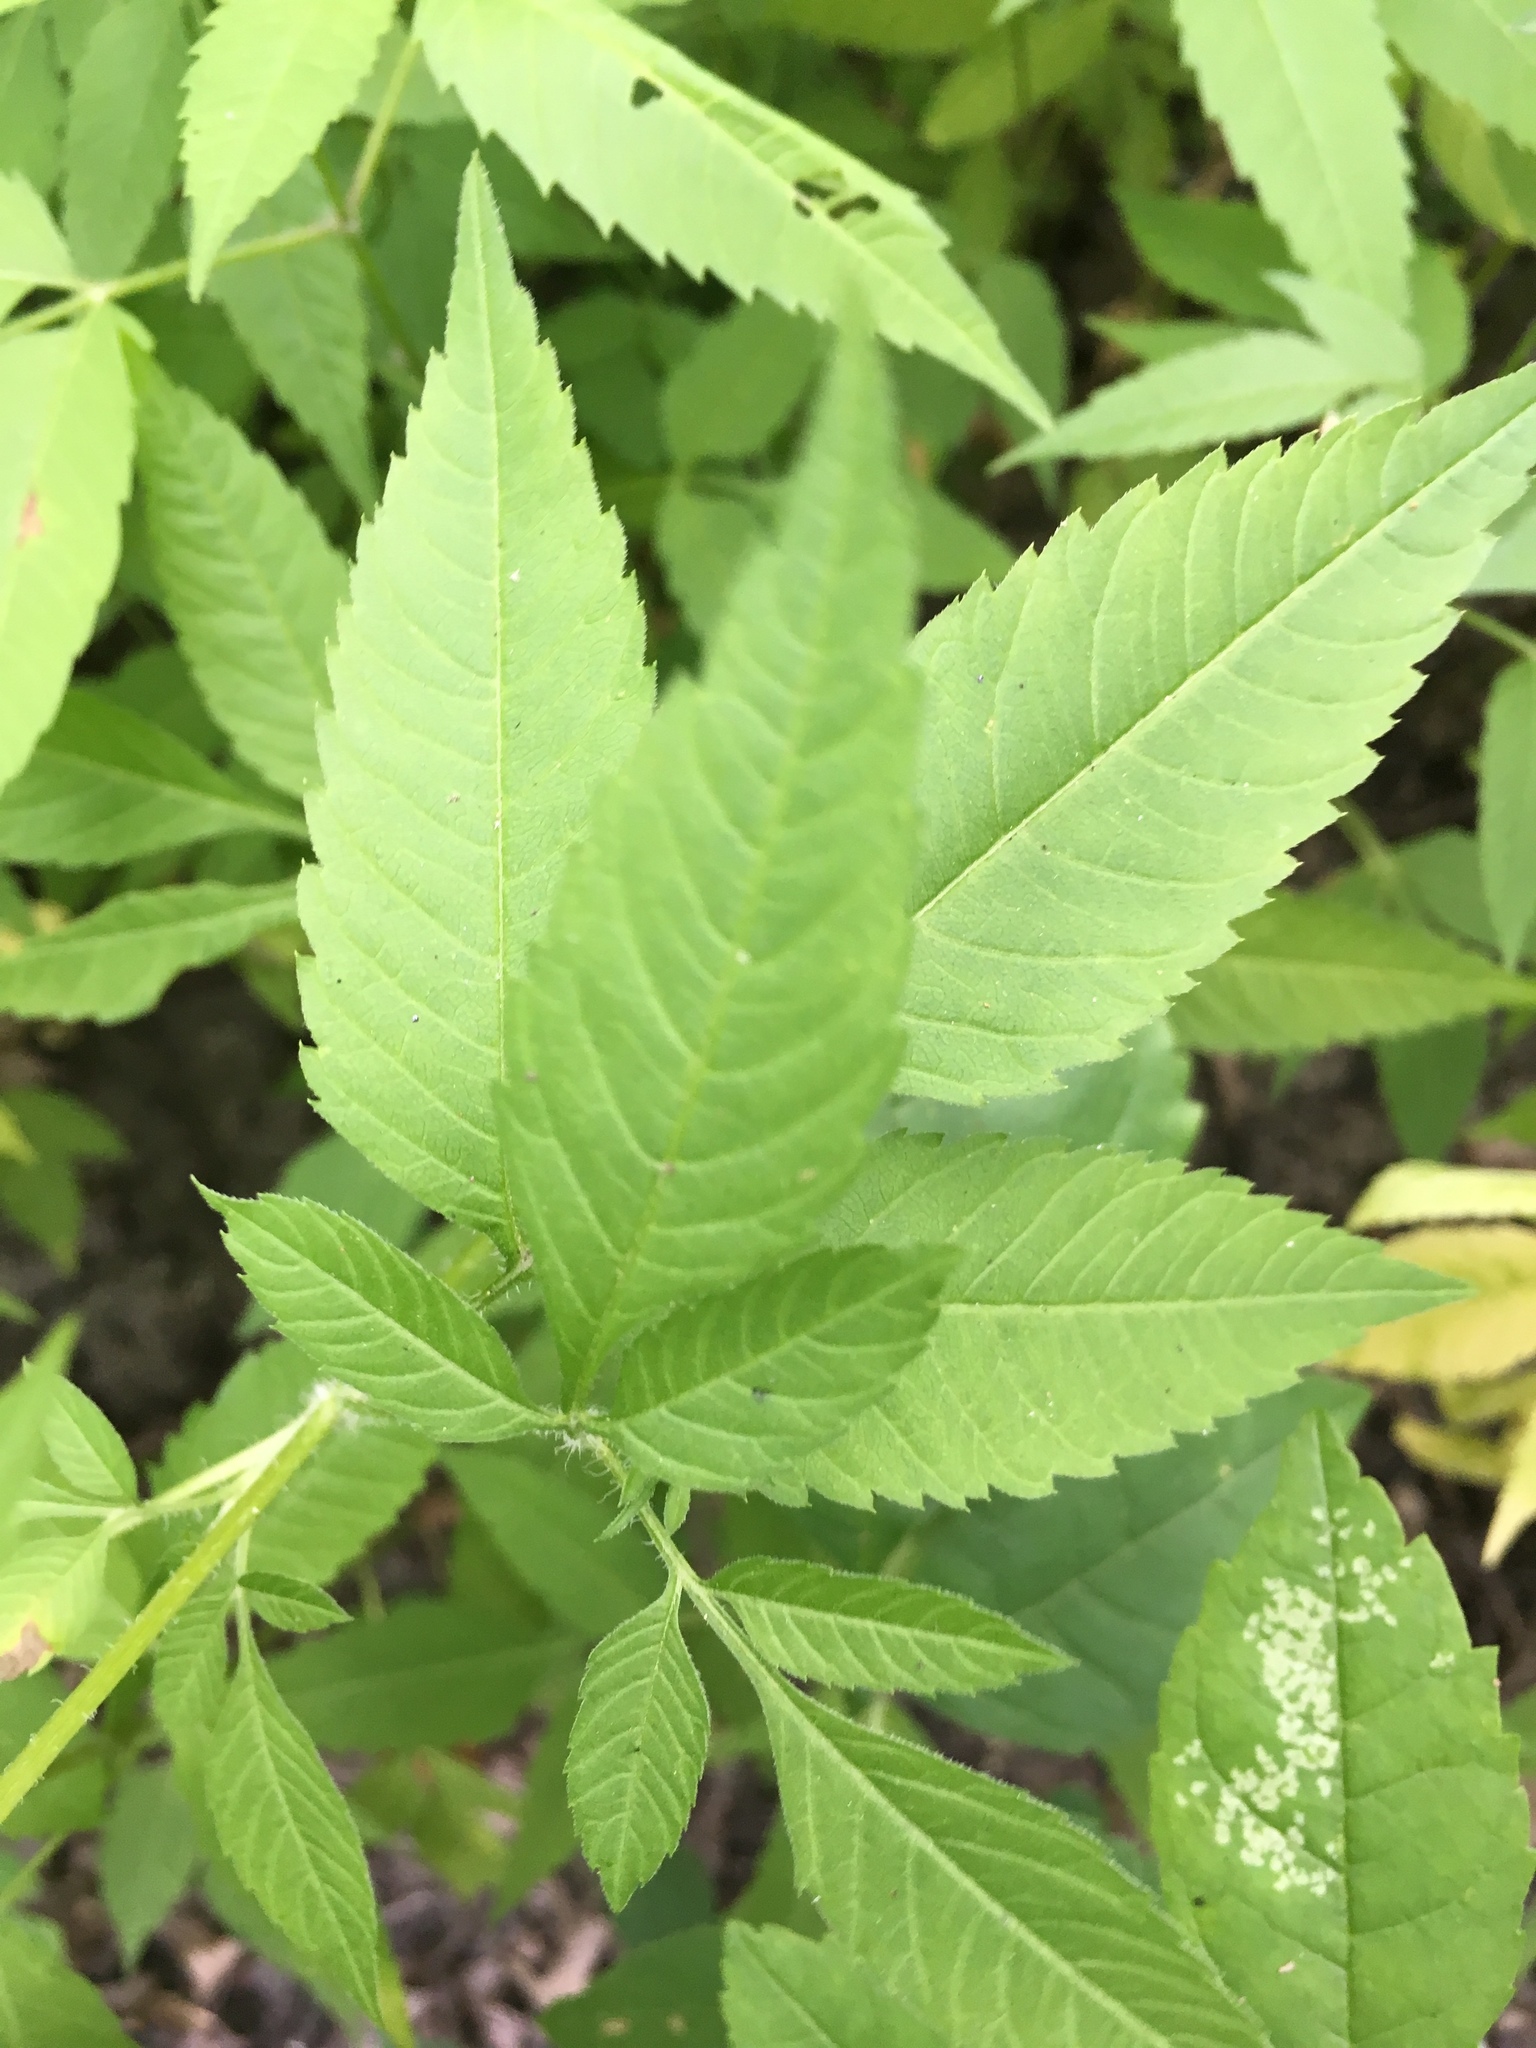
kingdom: Plantae
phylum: Tracheophyta
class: Magnoliopsida
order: Asterales
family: Asteraceae
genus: Bidens
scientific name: Bidens vulgata
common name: Tall beggarticks
